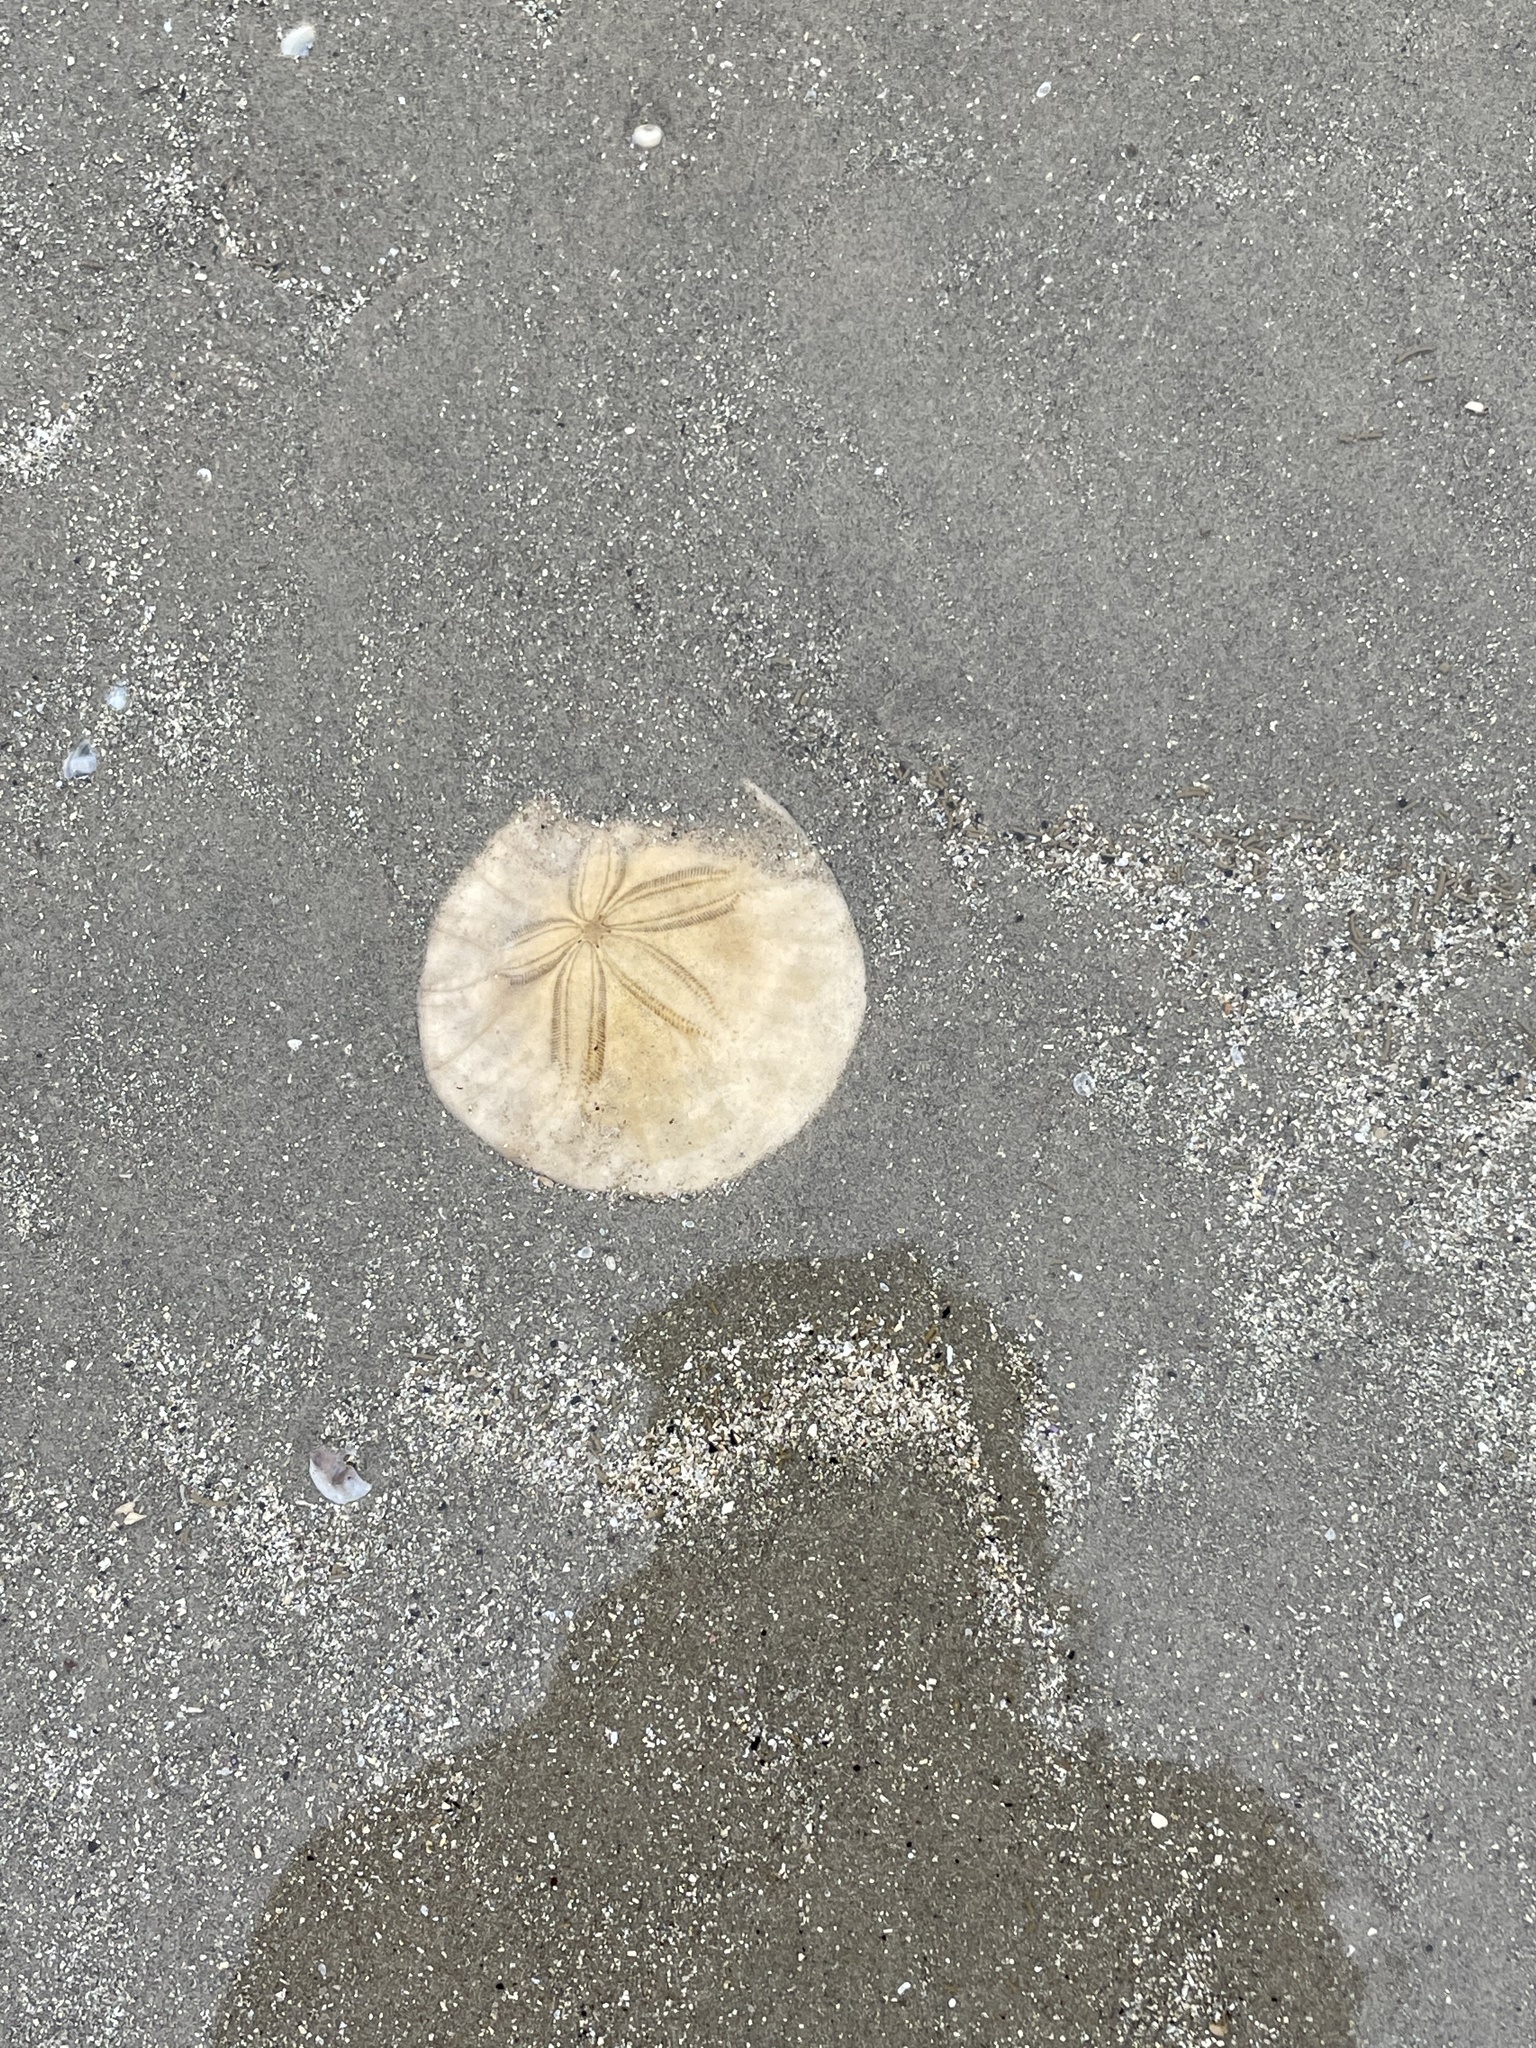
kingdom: Animalia
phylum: Echinodermata
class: Echinoidea
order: Echinolampadacea
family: Dendrasteridae
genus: Dendraster
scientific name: Dendraster excentricus
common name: Eccentric sand dollar sea urchin
